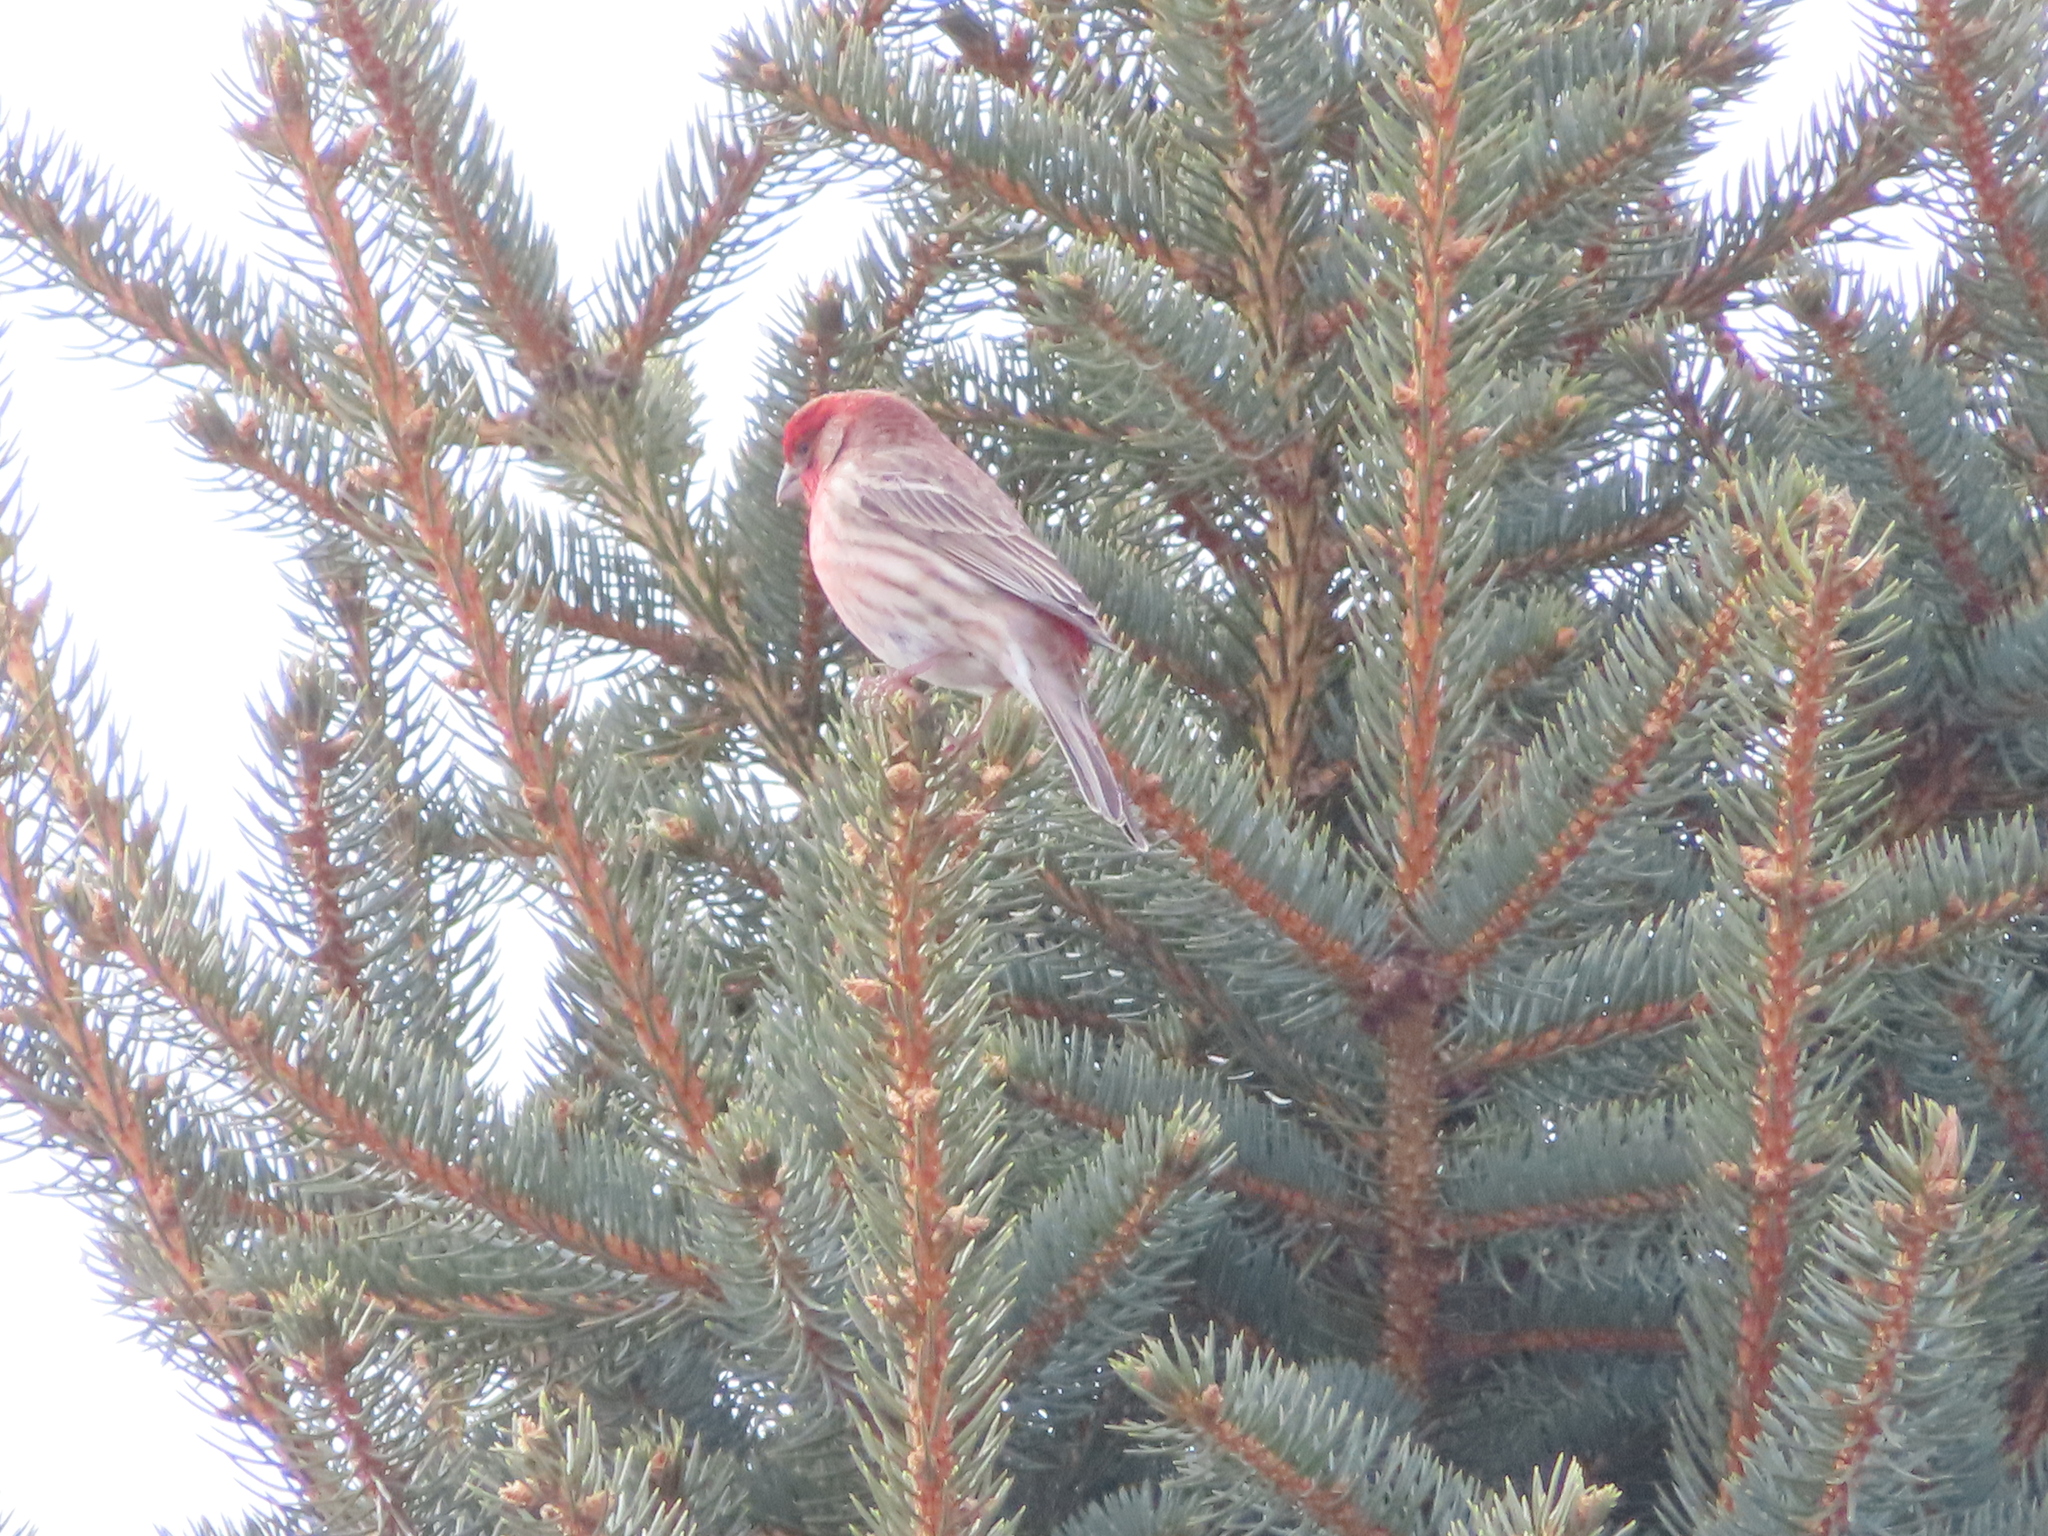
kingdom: Animalia
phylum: Chordata
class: Aves
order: Passeriformes
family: Fringillidae
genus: Haemorhous
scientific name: Haemorhous mexicanus
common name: House finch
